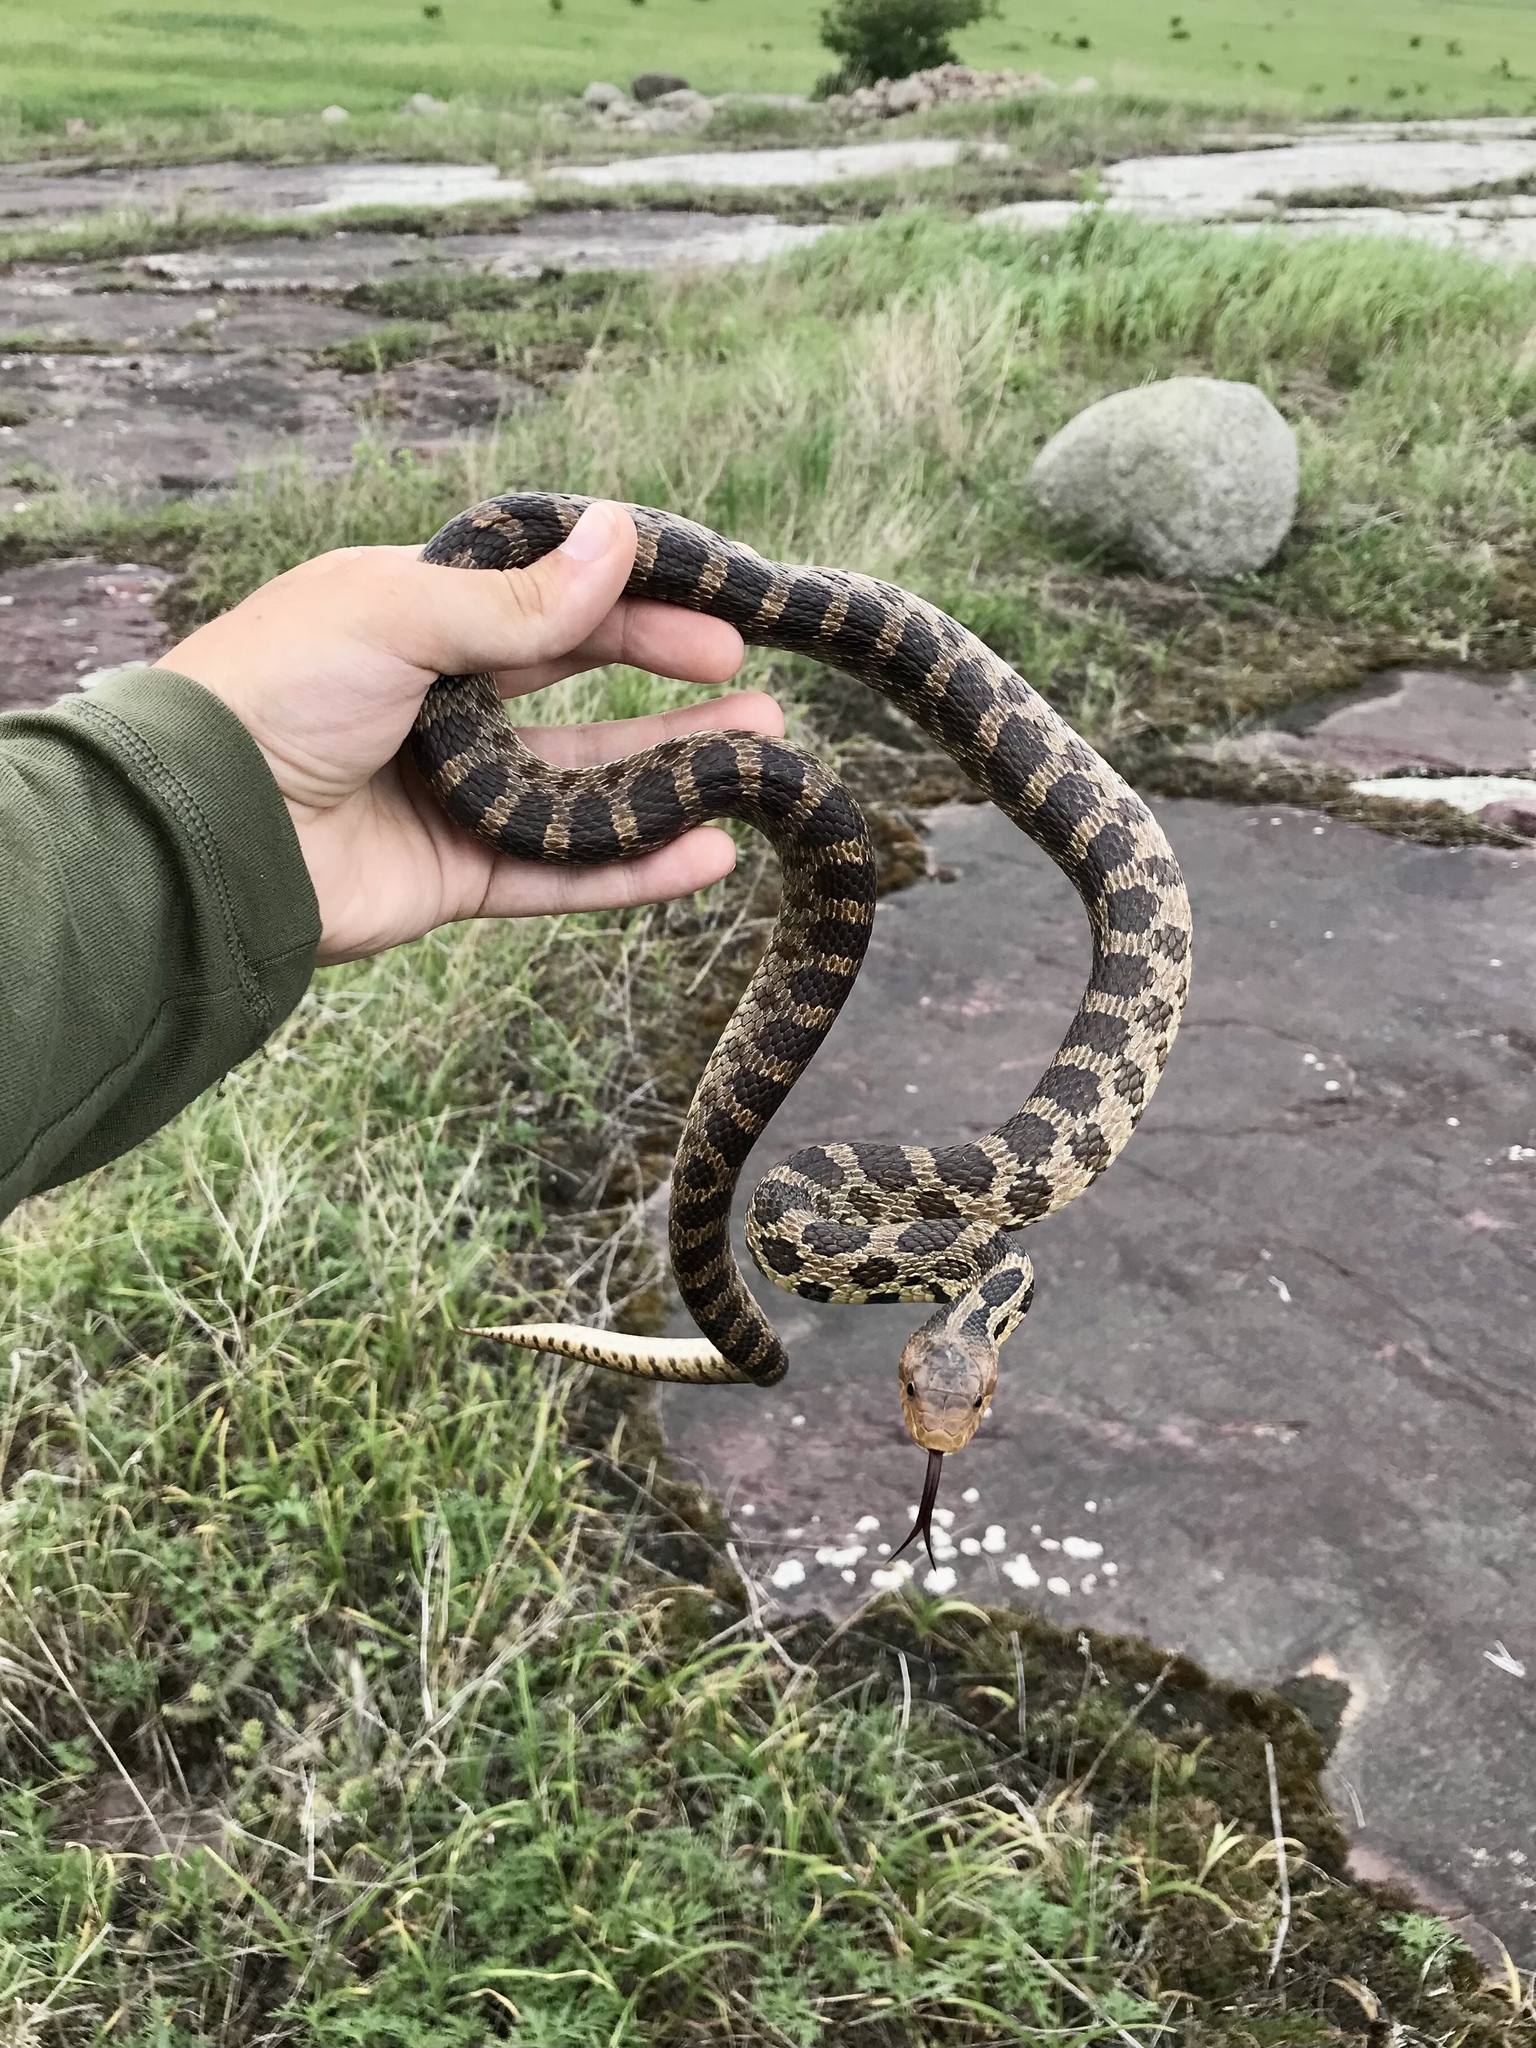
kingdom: Animalia
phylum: Chordata
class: Squamata
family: Colubridae
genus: Pantherophis
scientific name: Pantherophis ramspotti
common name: Western foxsnake
